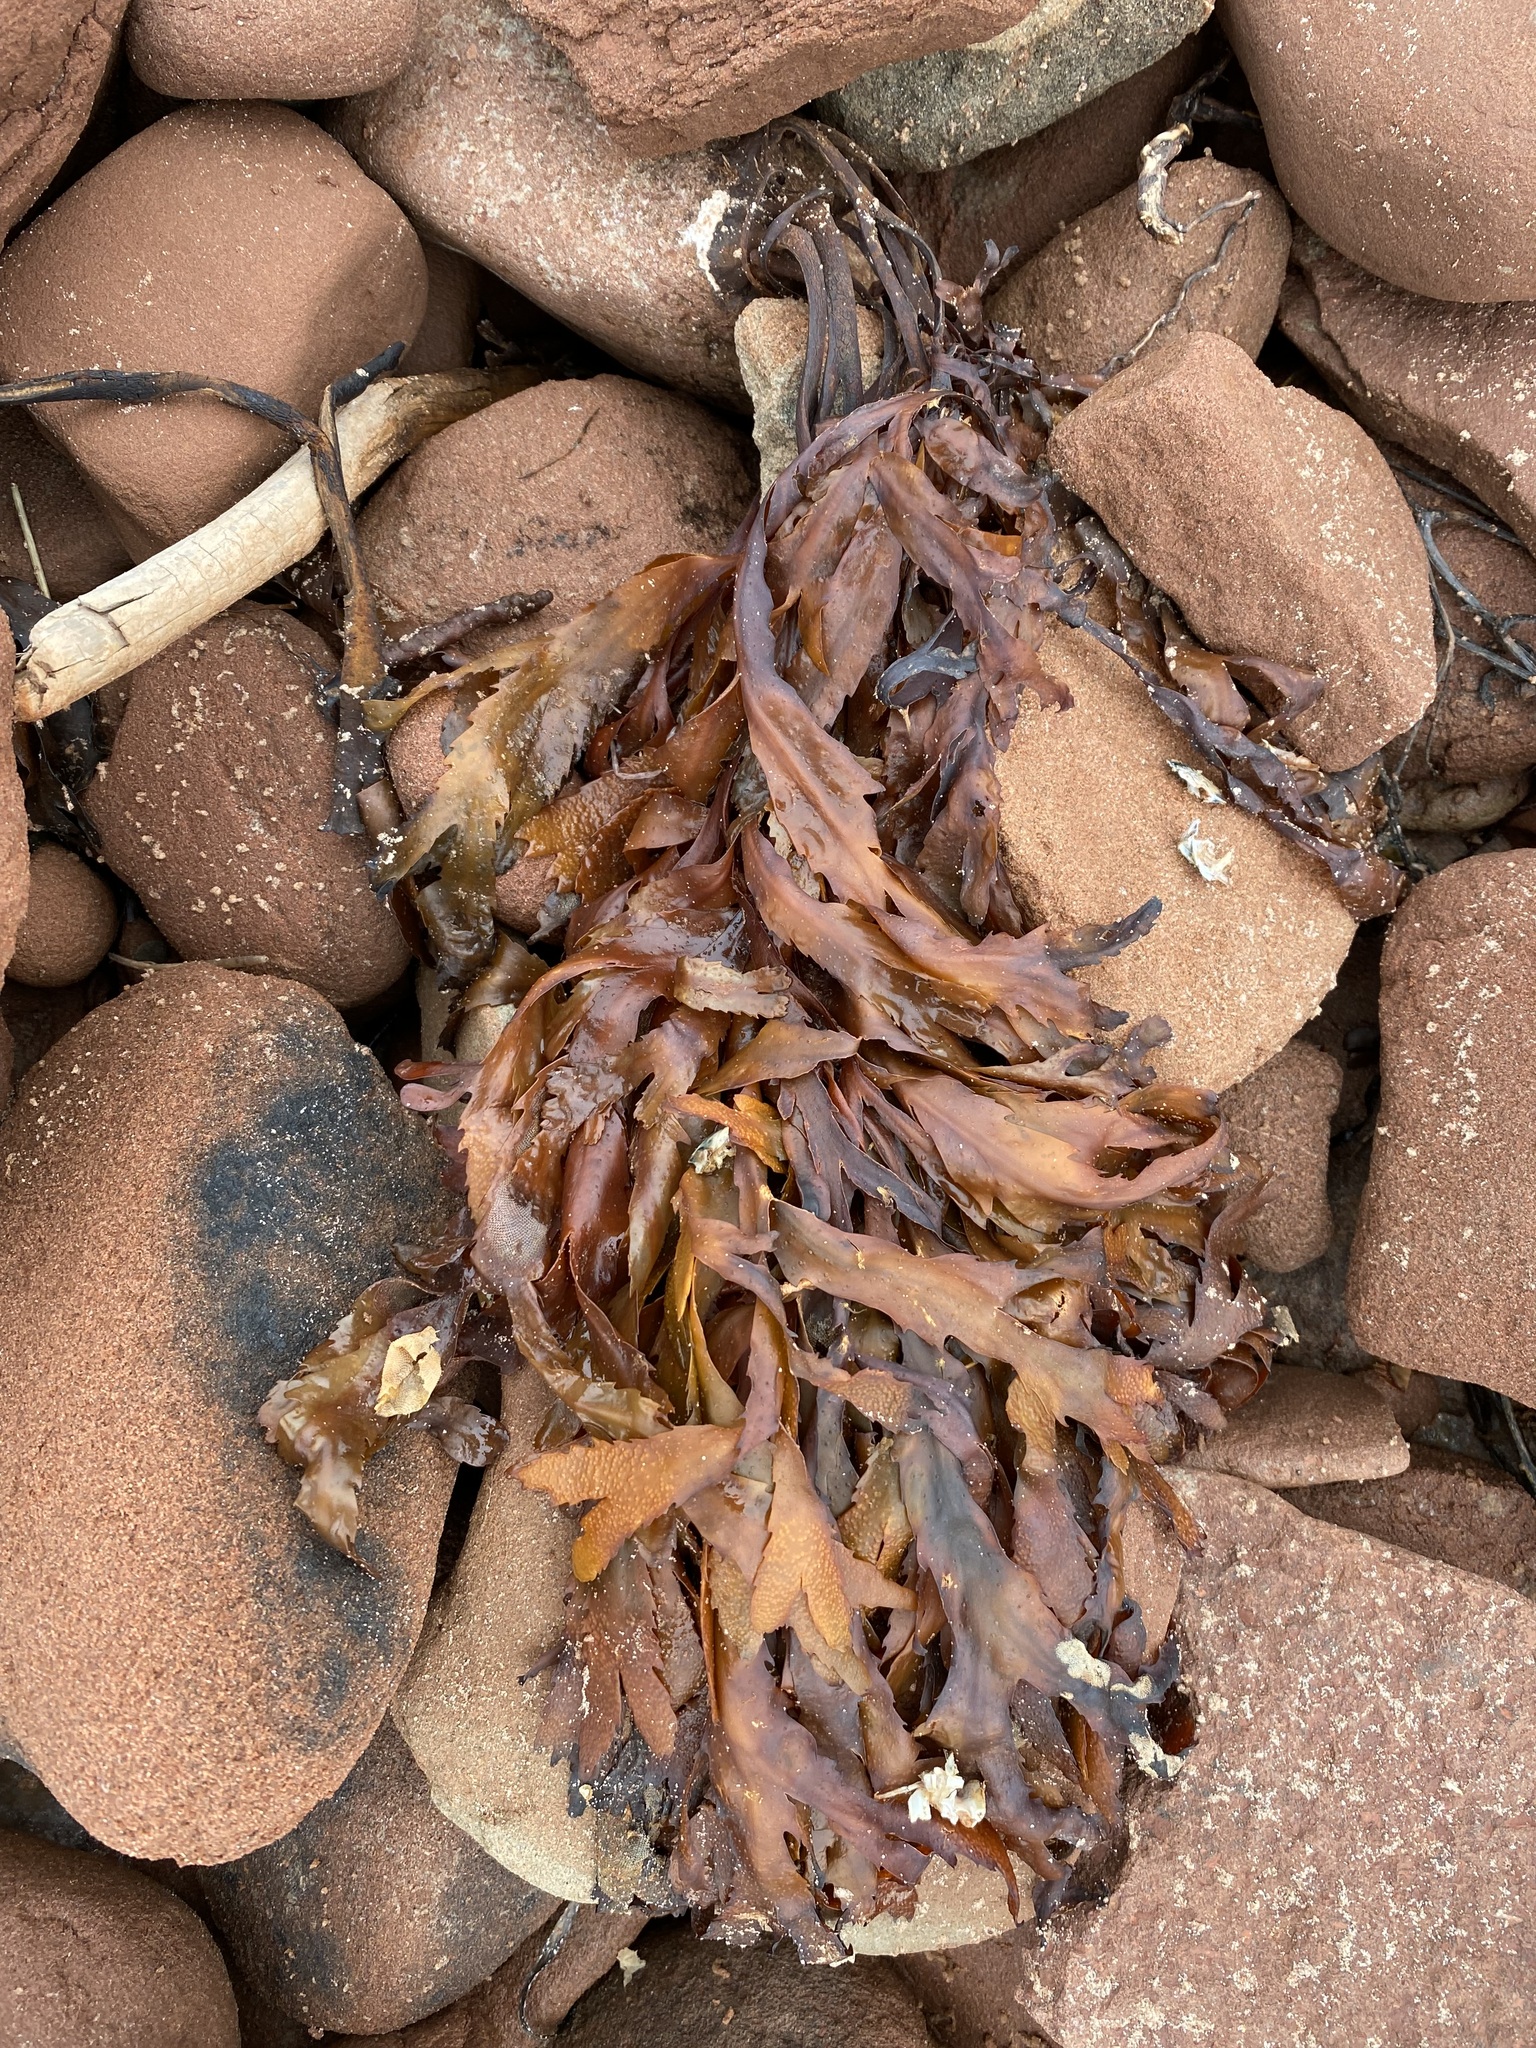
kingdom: Chromista
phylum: Ochrophyta
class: Phaeophyceae
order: Fucales
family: Fucaceae
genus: Fucus
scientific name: Fucus serratus
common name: Toothed wrack
